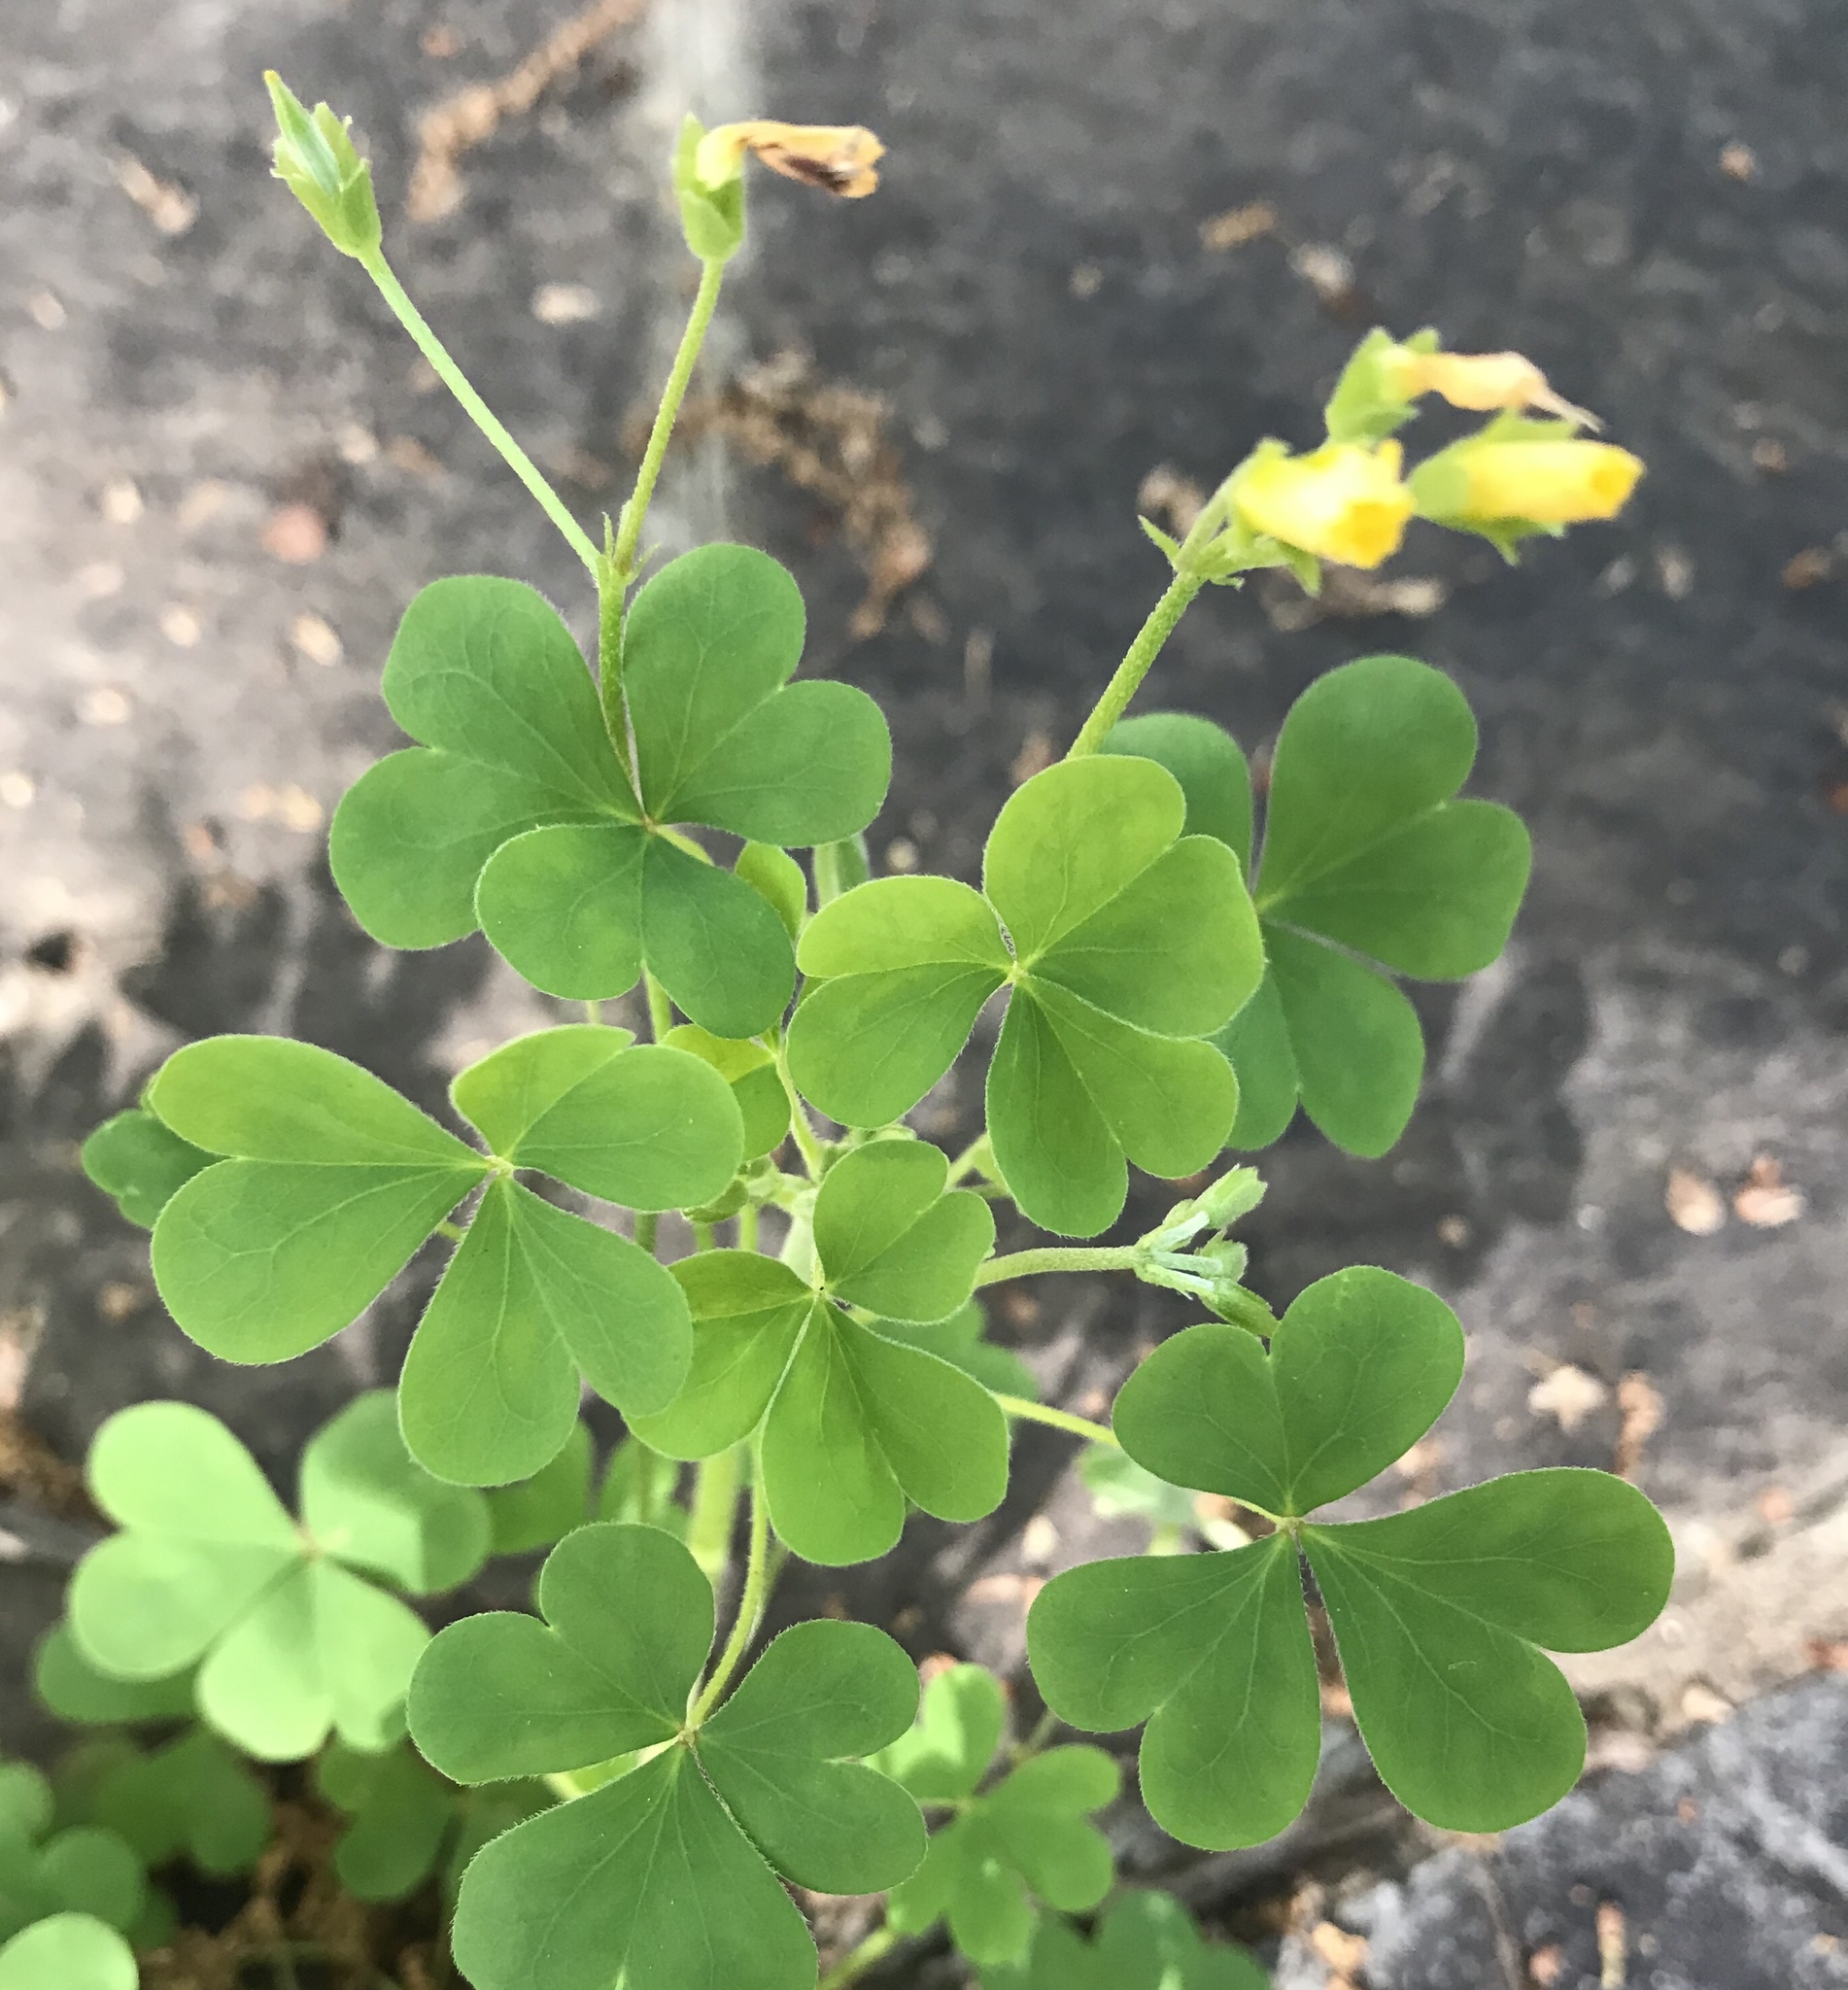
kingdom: Plantae
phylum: Tracheophyta
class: Magnoliopsida
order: Oxalidales
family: Oxalidaceae
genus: Oxalis
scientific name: Oxalis dillenii
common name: Sussex yellow-sorrel
